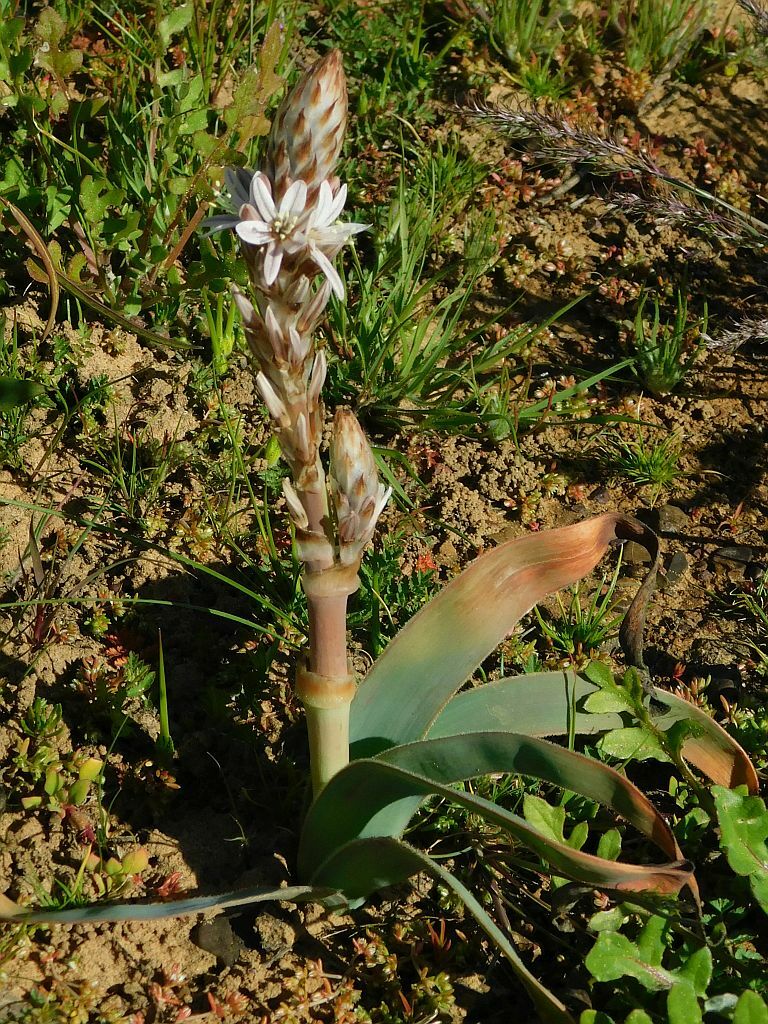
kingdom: Plantae
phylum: Tracheophyta
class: Liliopsida
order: Asparagales
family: Asphodelaceae
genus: Trachyandra
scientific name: Trachyandra falcata
